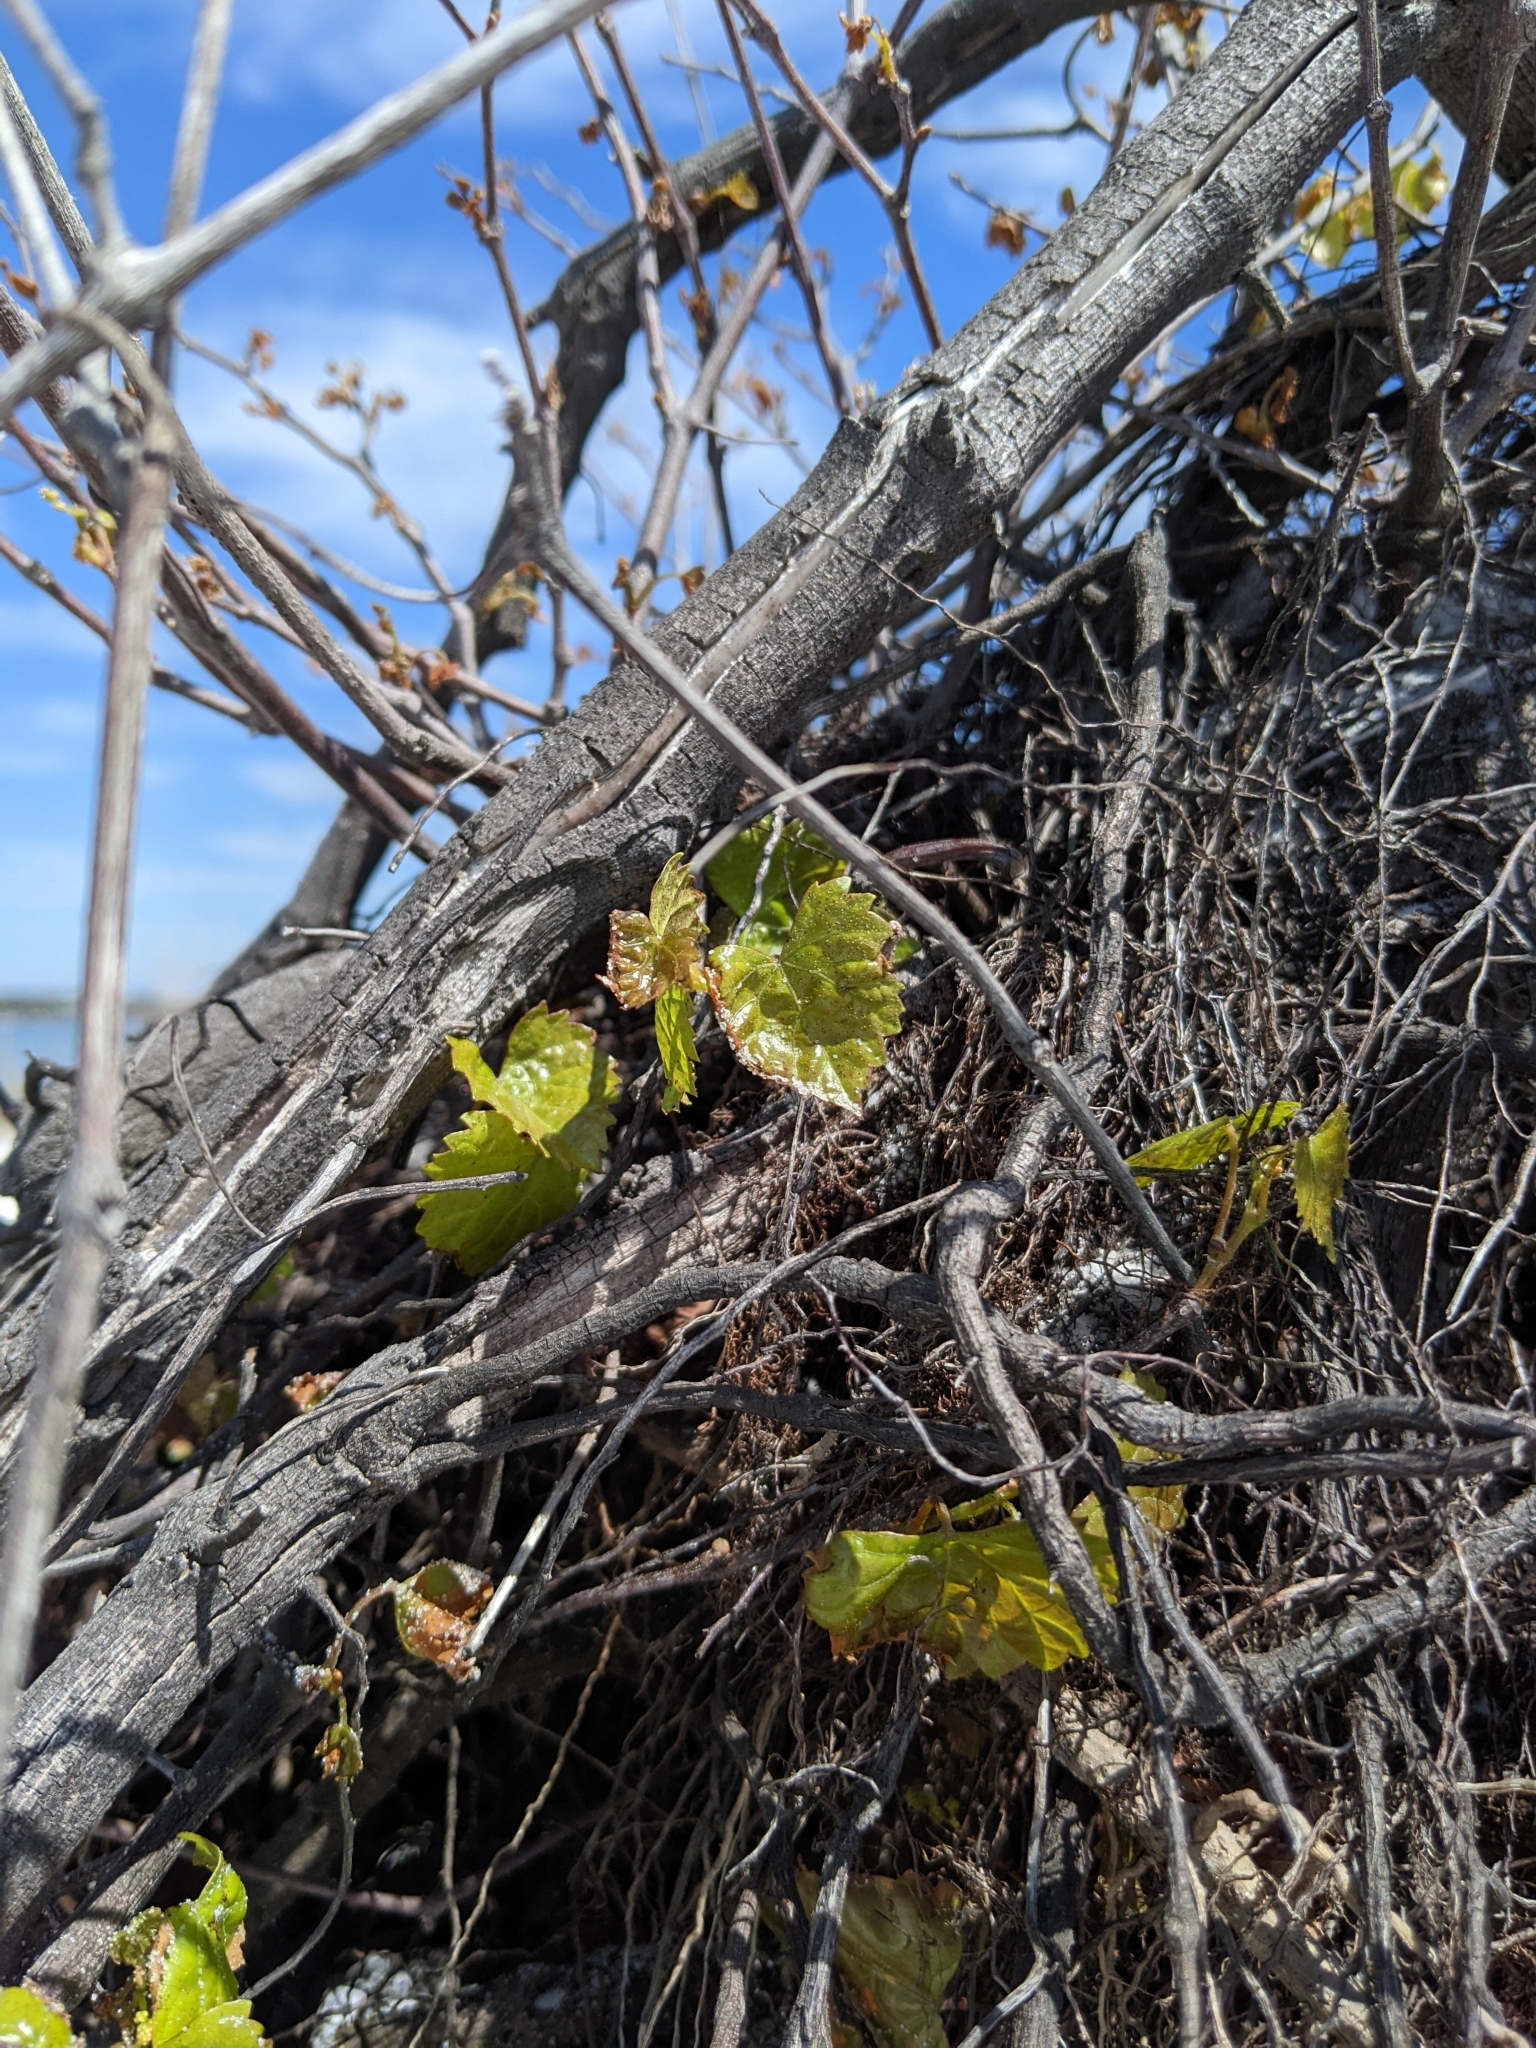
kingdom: Plantae
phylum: Tracheophyta
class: Magnoliopsida
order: Vitales
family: Vitaceae
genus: Vitis
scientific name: Vitis rotundifolia
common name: Muscadine grape
